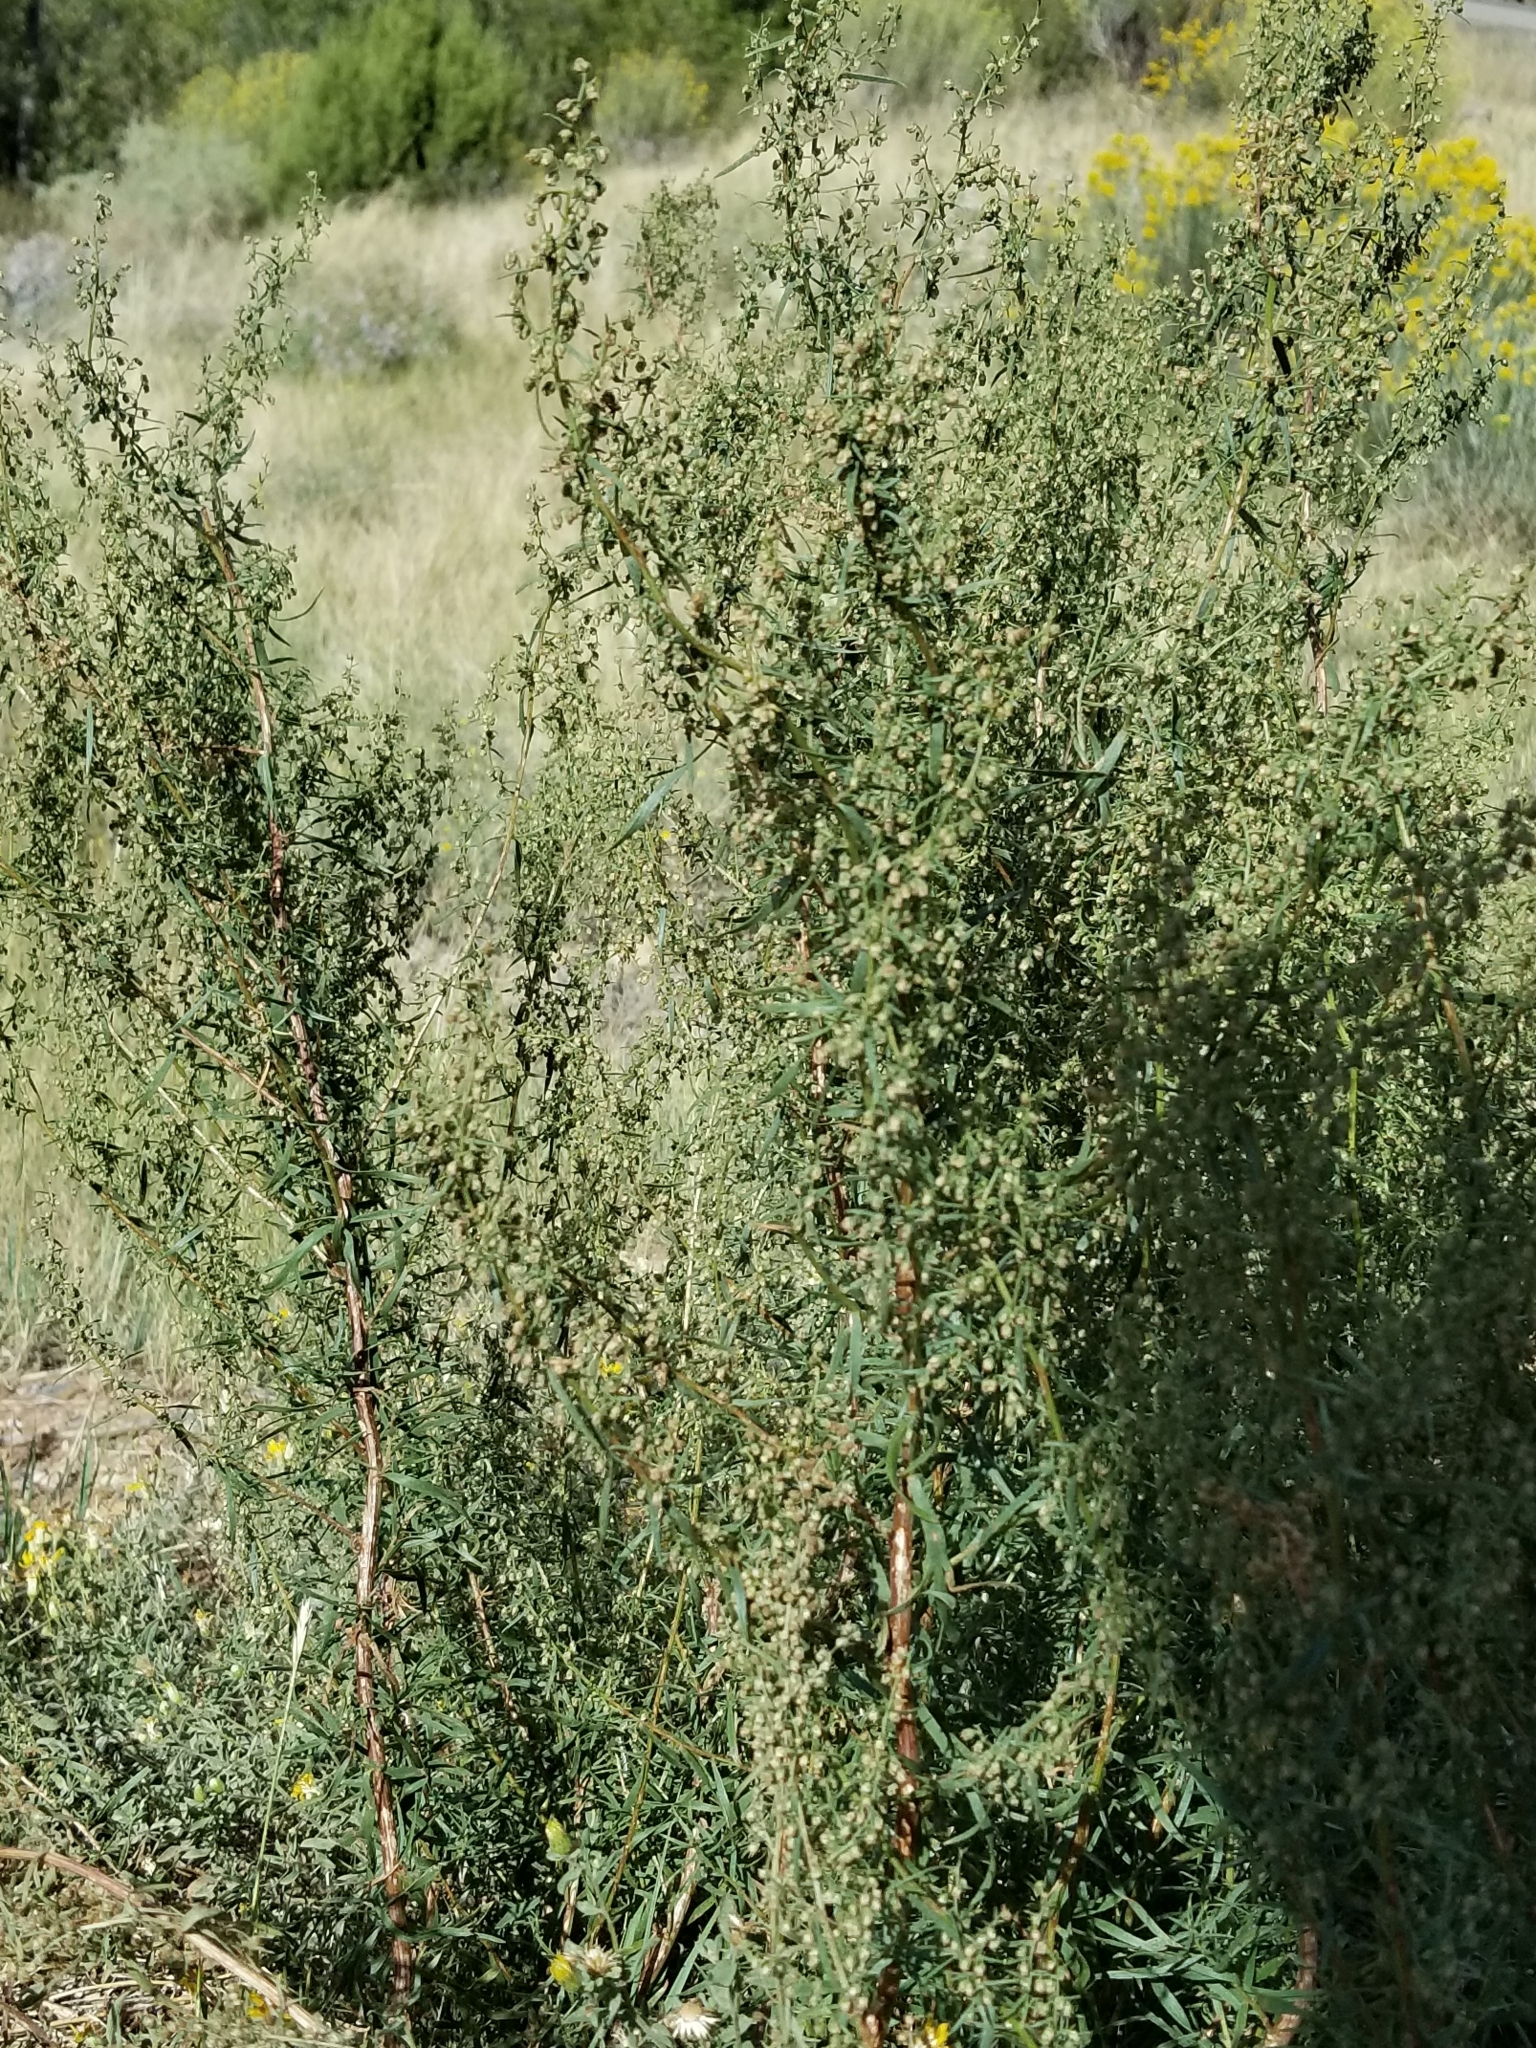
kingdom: Plantae
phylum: Tracheophyta
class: Magnoliopsida
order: Asterales
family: Asteraceae
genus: Artemisia
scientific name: Artemisia dracunculus
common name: Tarragon
